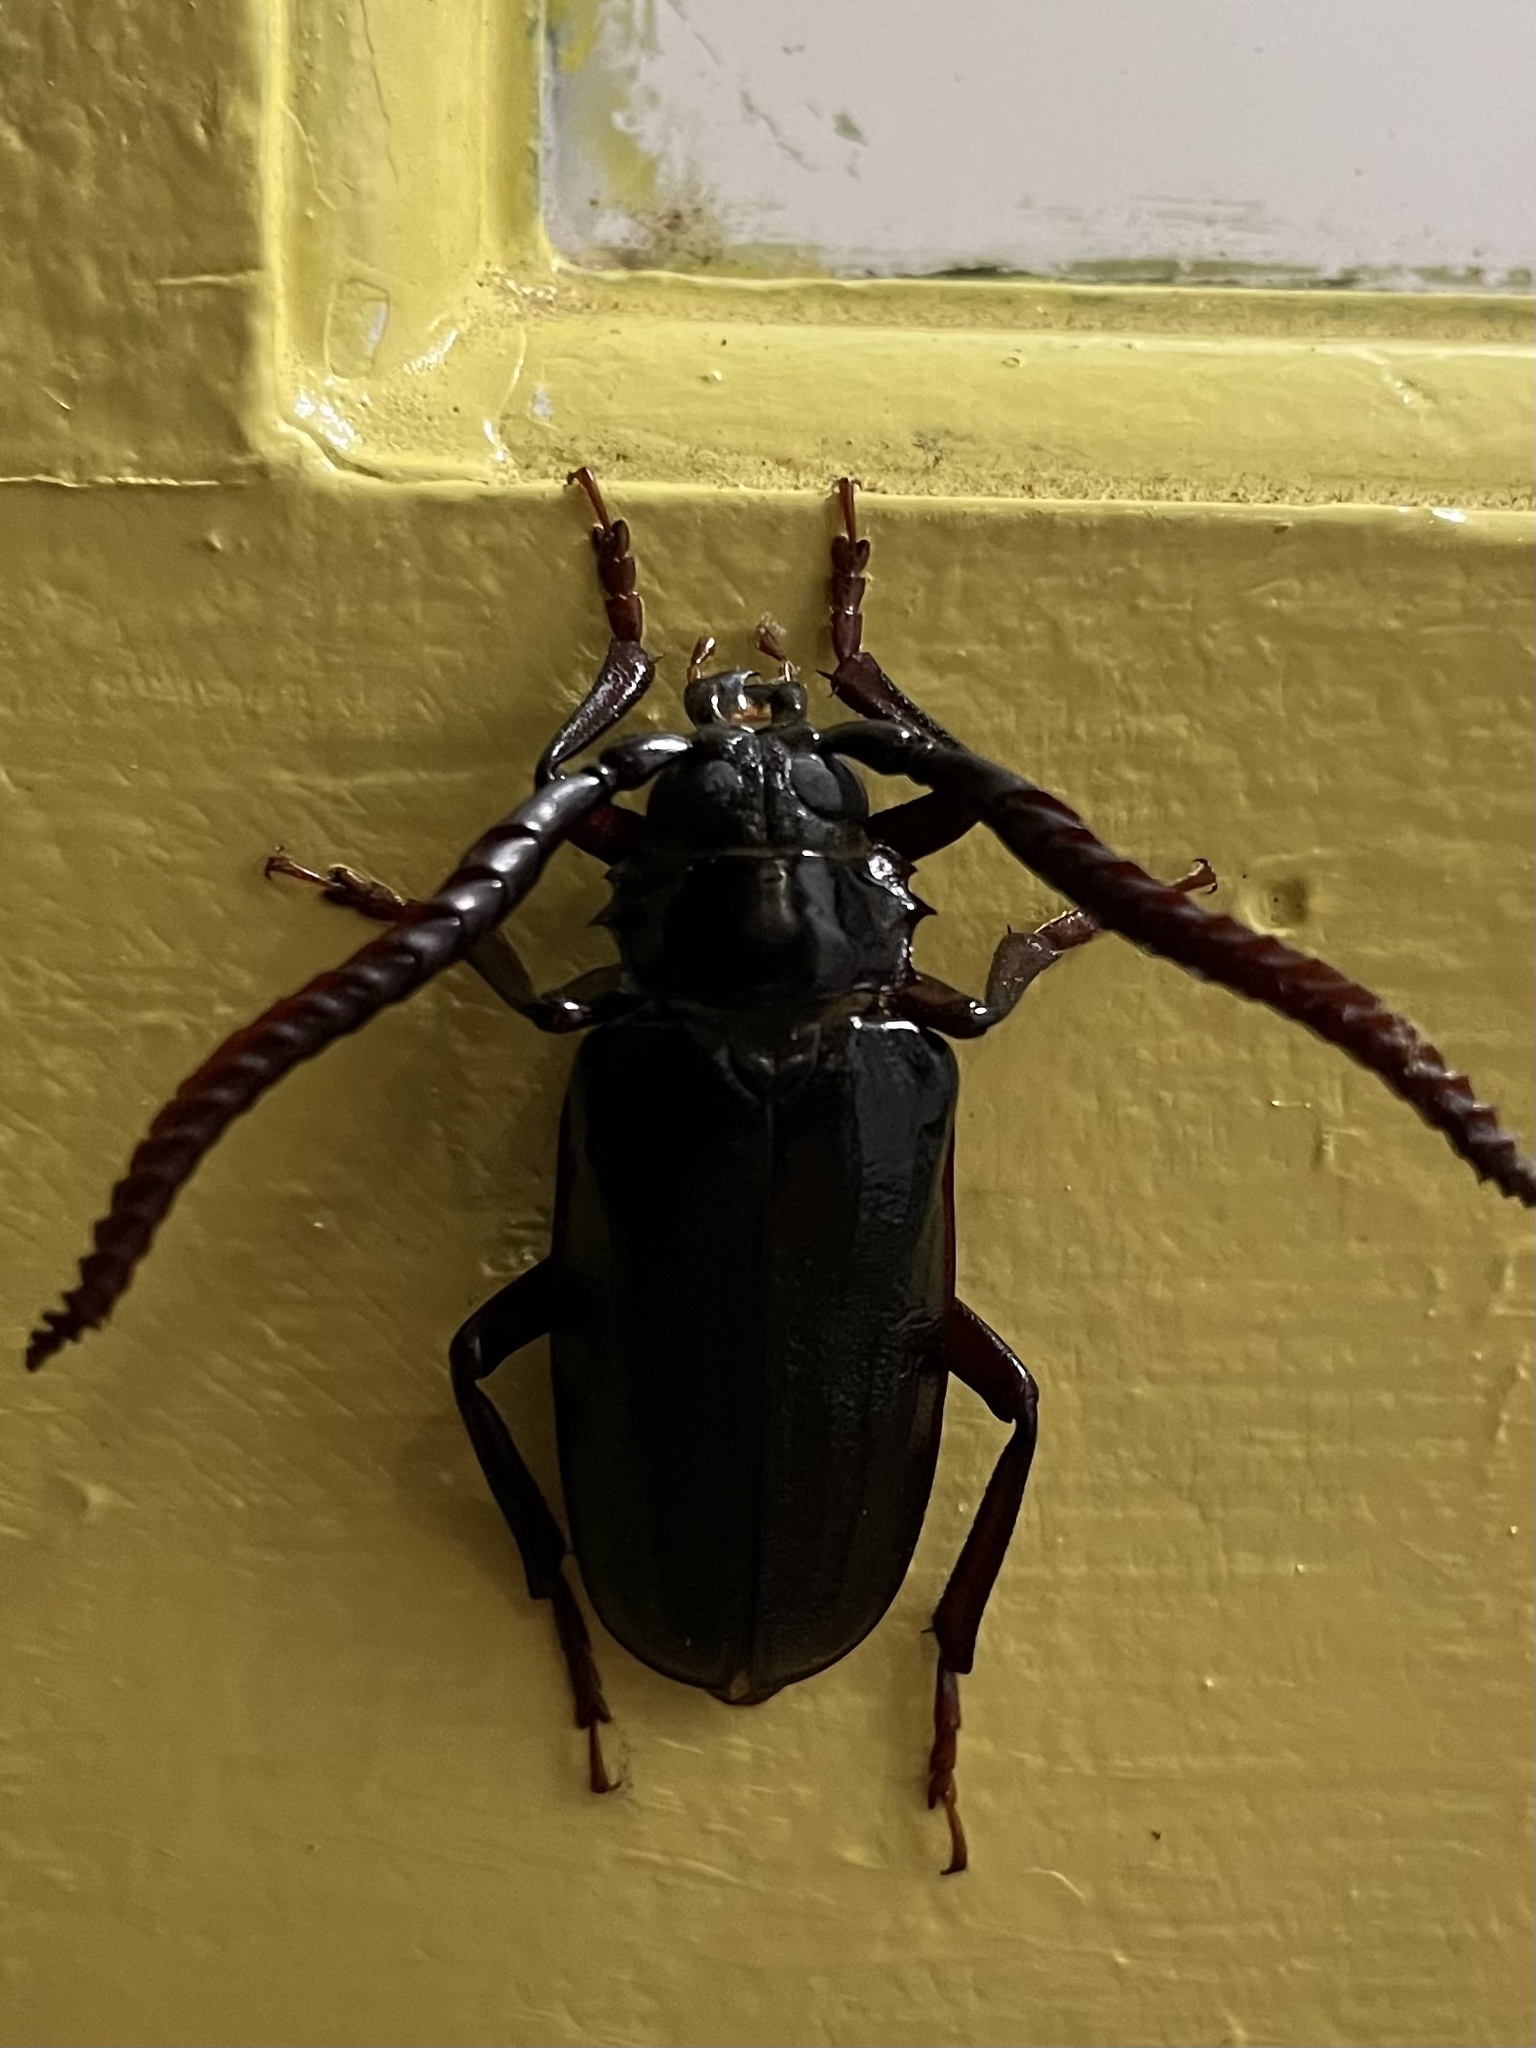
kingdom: Animalia
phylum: Arthropoda
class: Insecta
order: Coleoptera
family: Cerambycidae
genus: Prionus
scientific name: Prionus imbricornis
